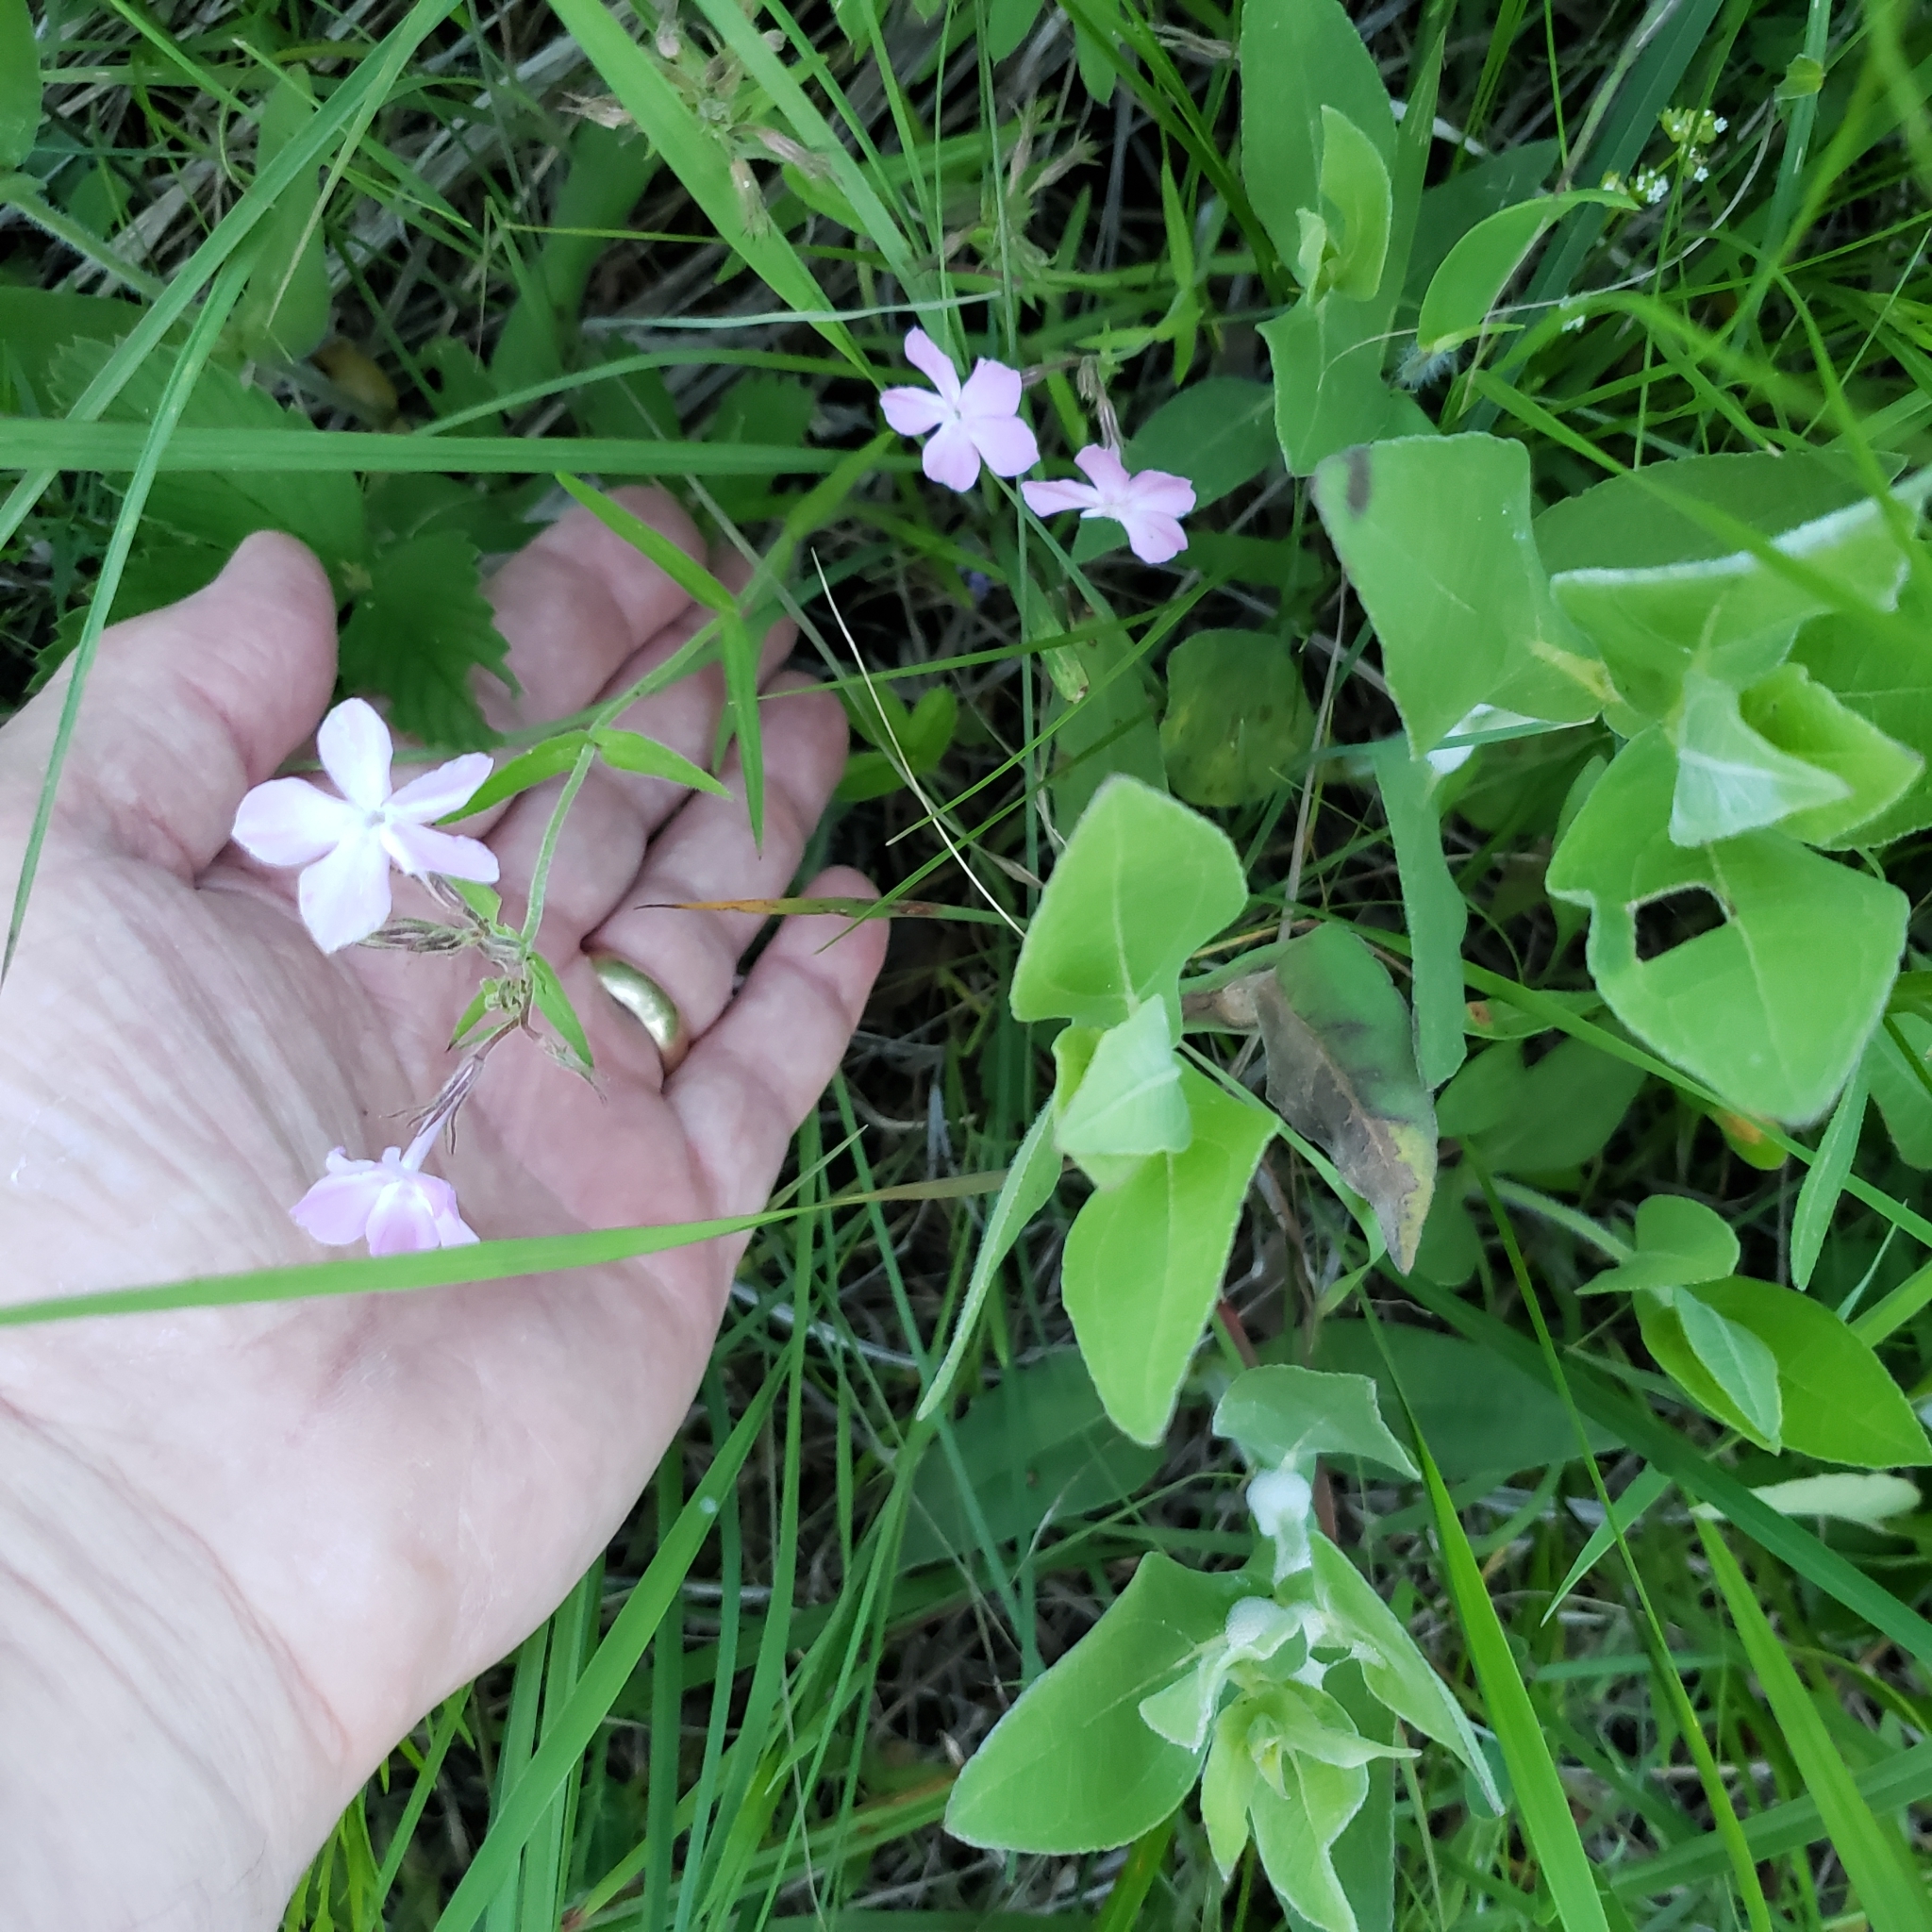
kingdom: Plantae
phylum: Tracheophyta
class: Magnoliopsida
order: Ericales
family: Polemoniaceae
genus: Phlox
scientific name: Phlox pilosa
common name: Prairie phlox
